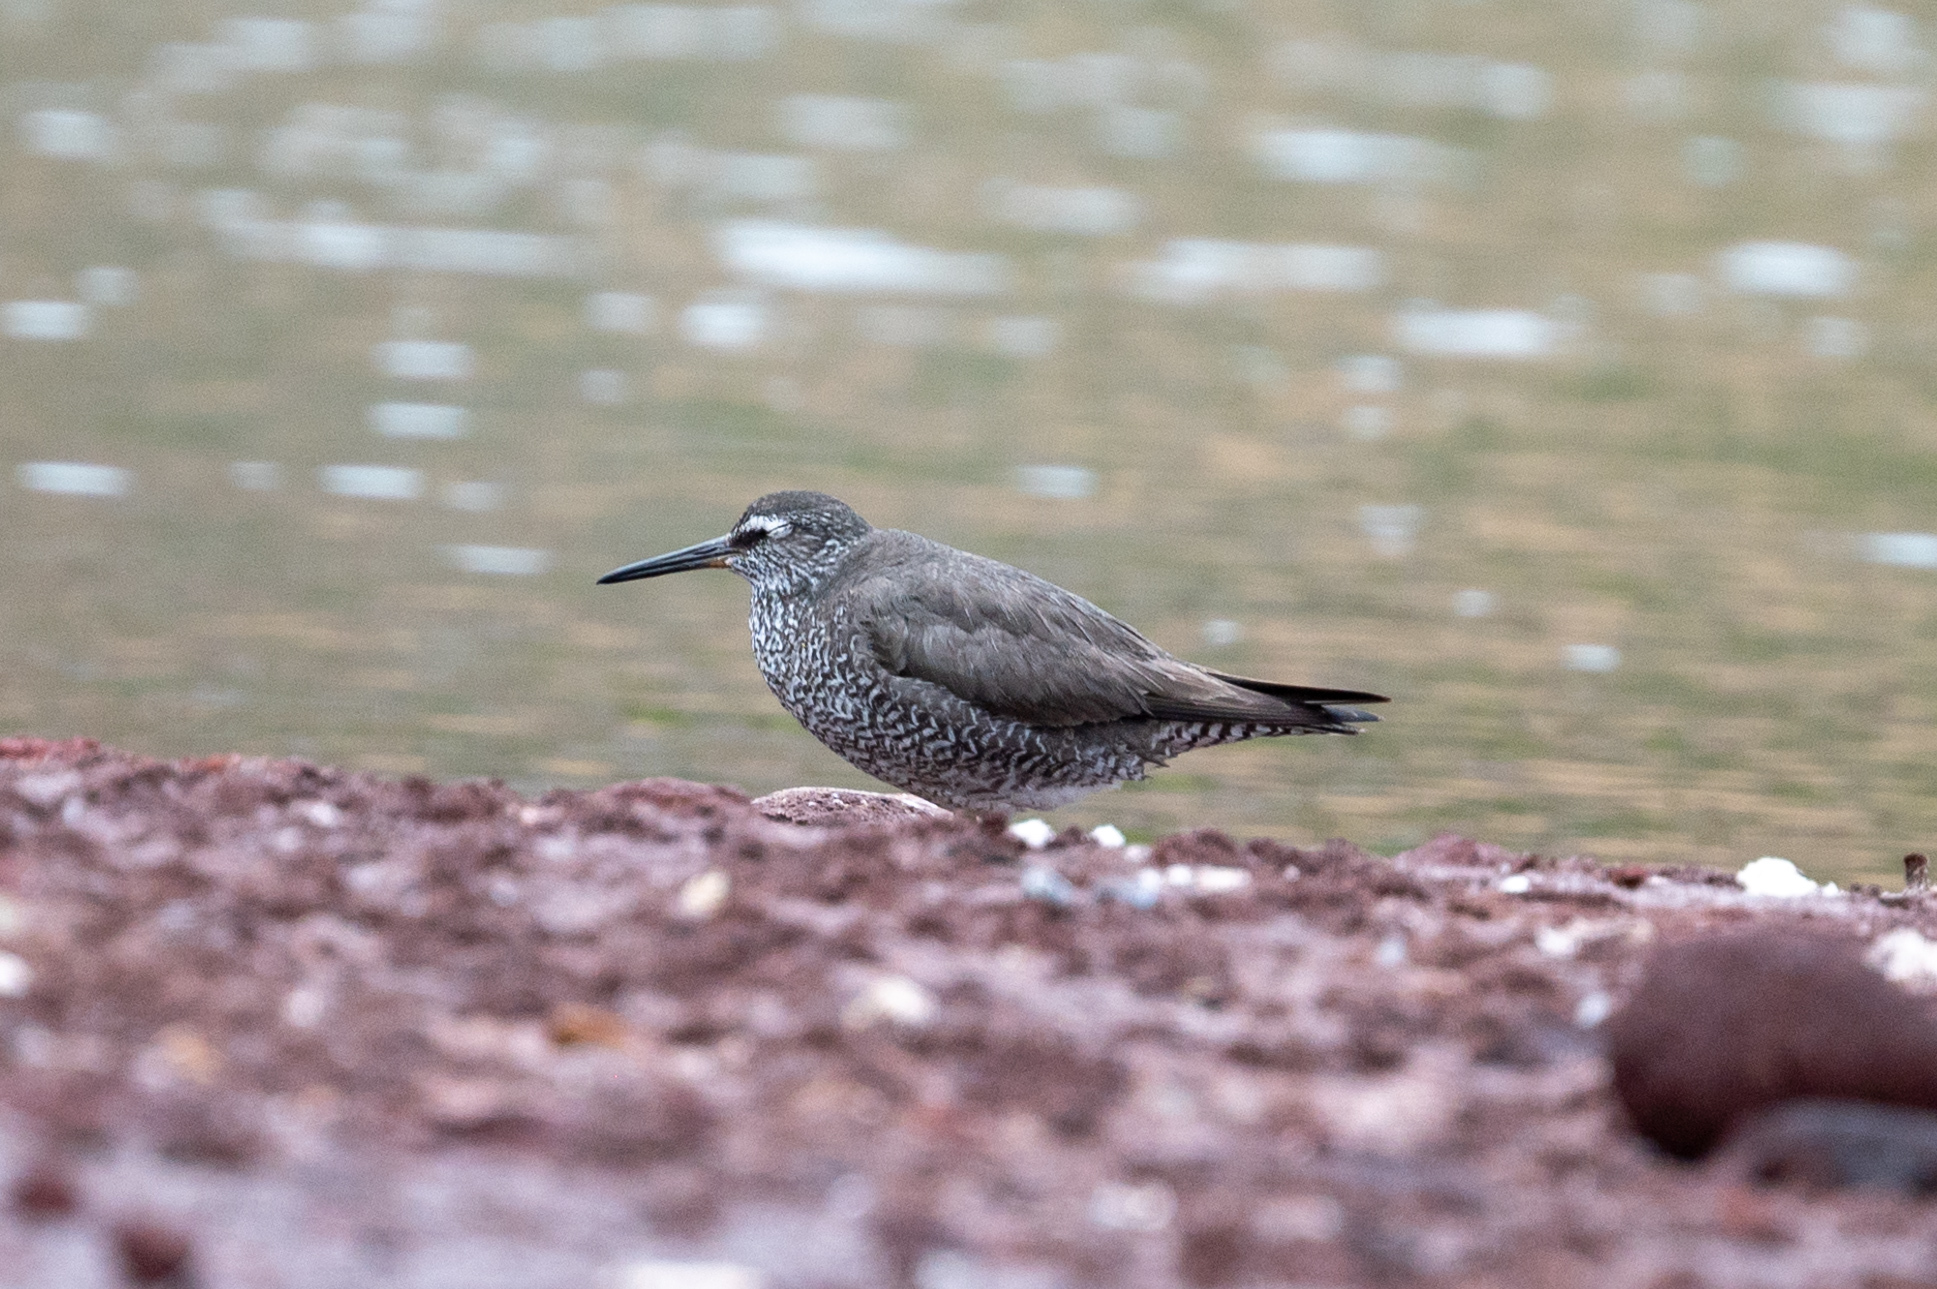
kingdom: Animalia
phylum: Chordata
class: Aves
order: Charadriiformes
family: Scolopacidae
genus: Tringa
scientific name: Tringa incana
